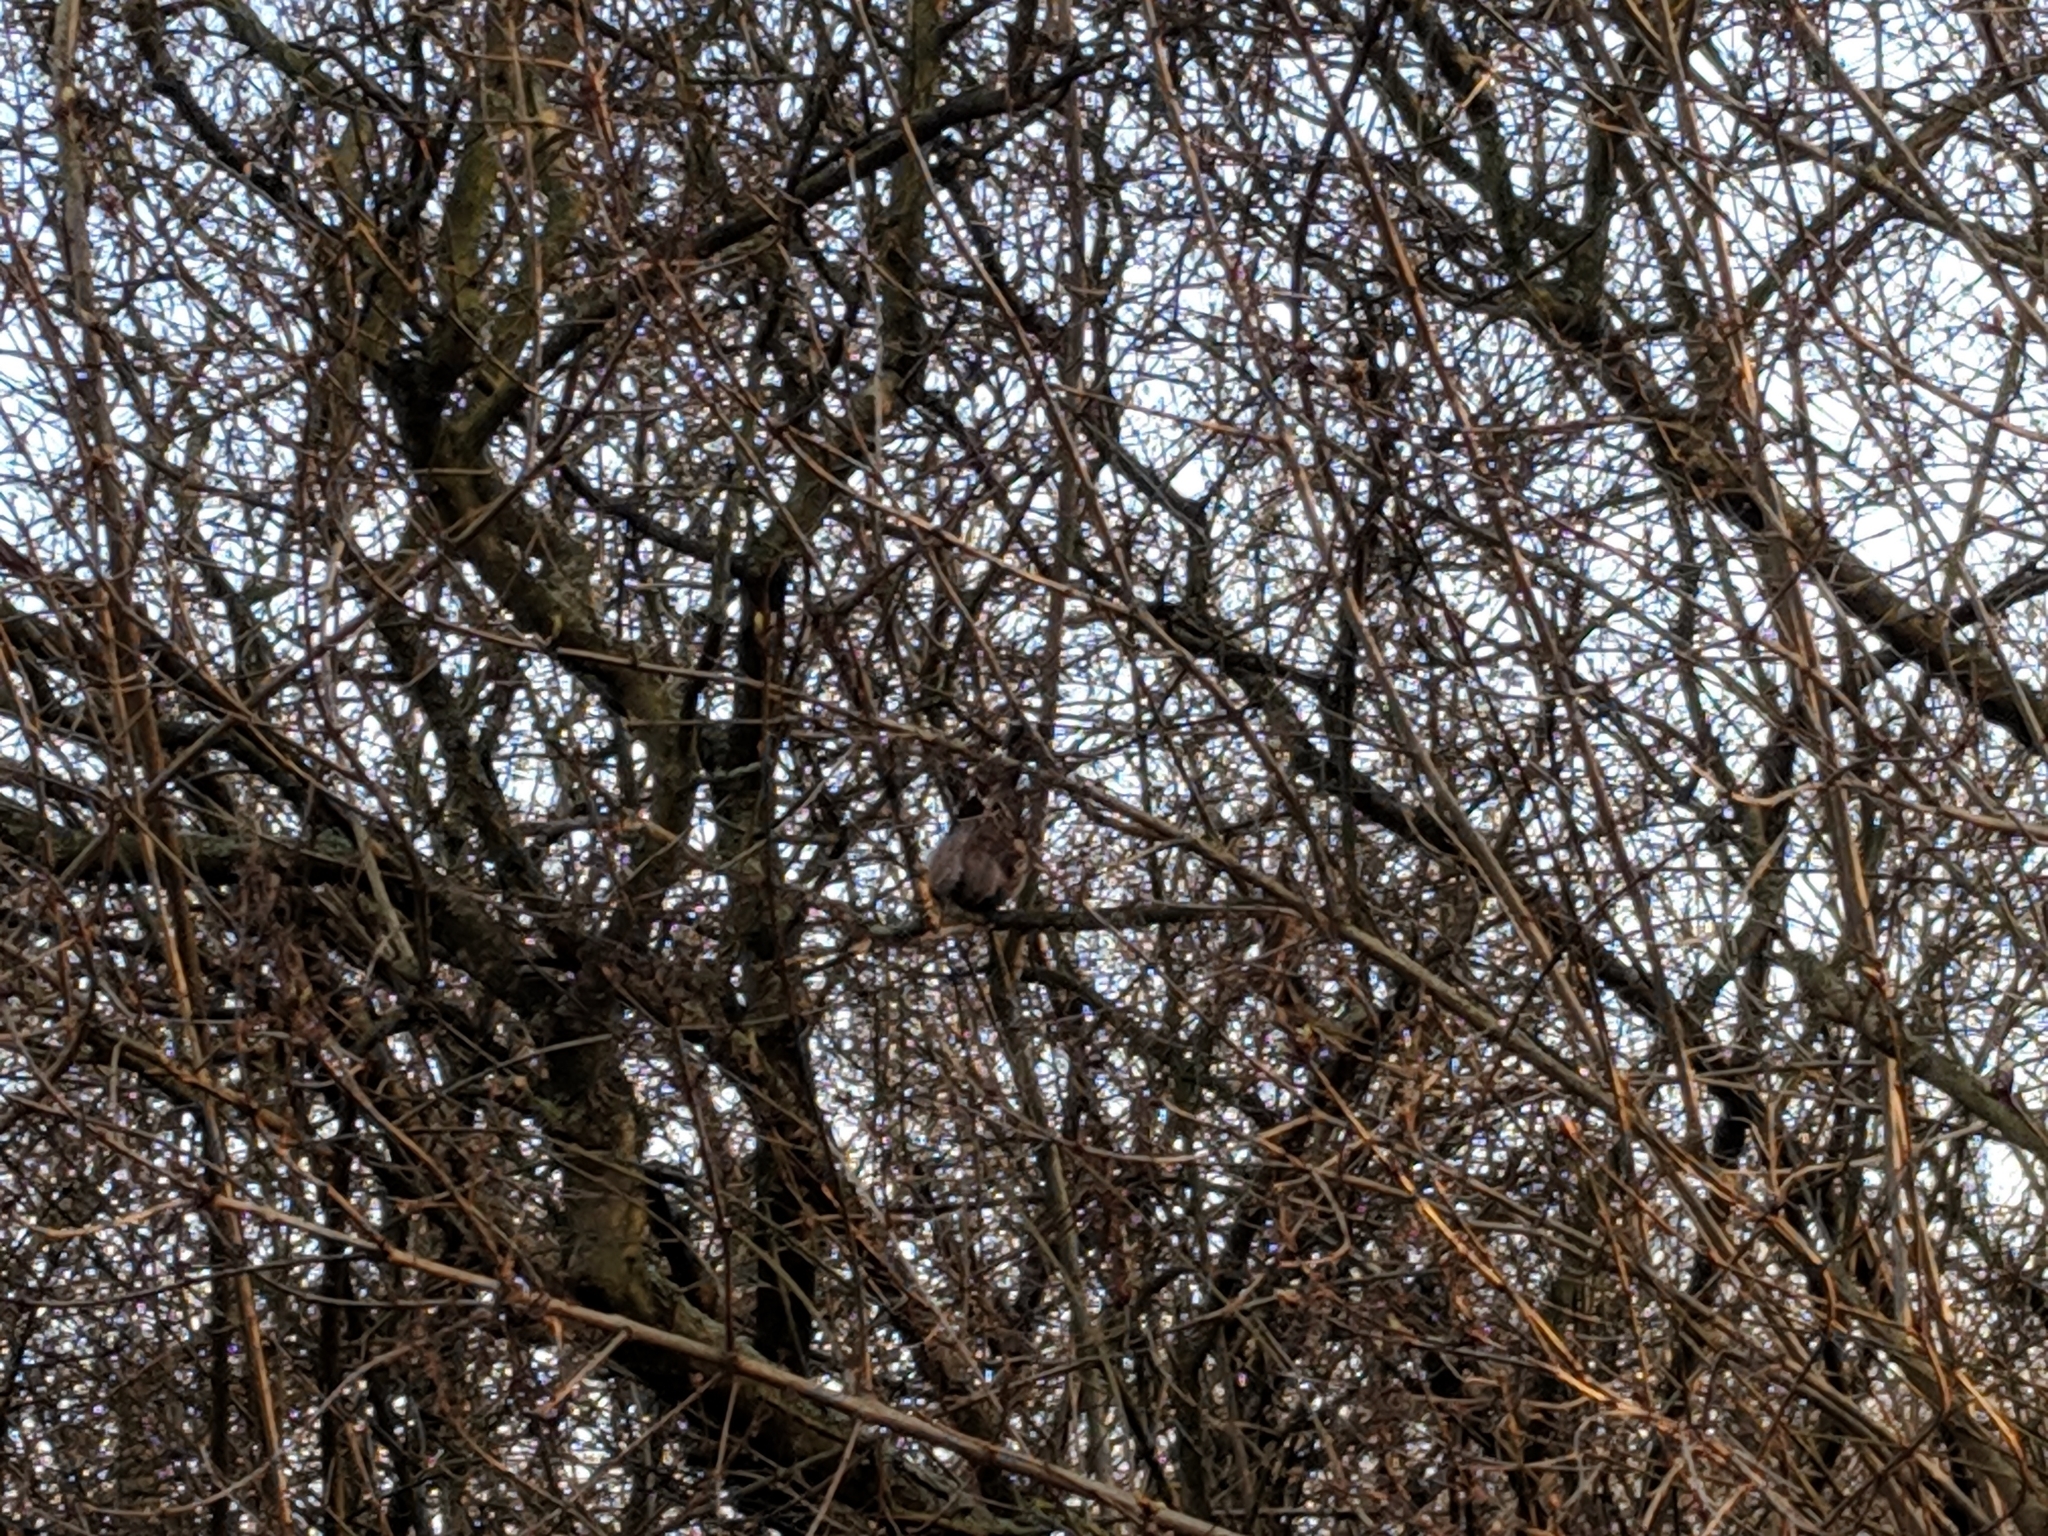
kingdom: Animalia
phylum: Chordata
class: Aves
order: Passeriformes
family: Aegithalidae
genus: Aegithalos
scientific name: Aegithalos caudatus
